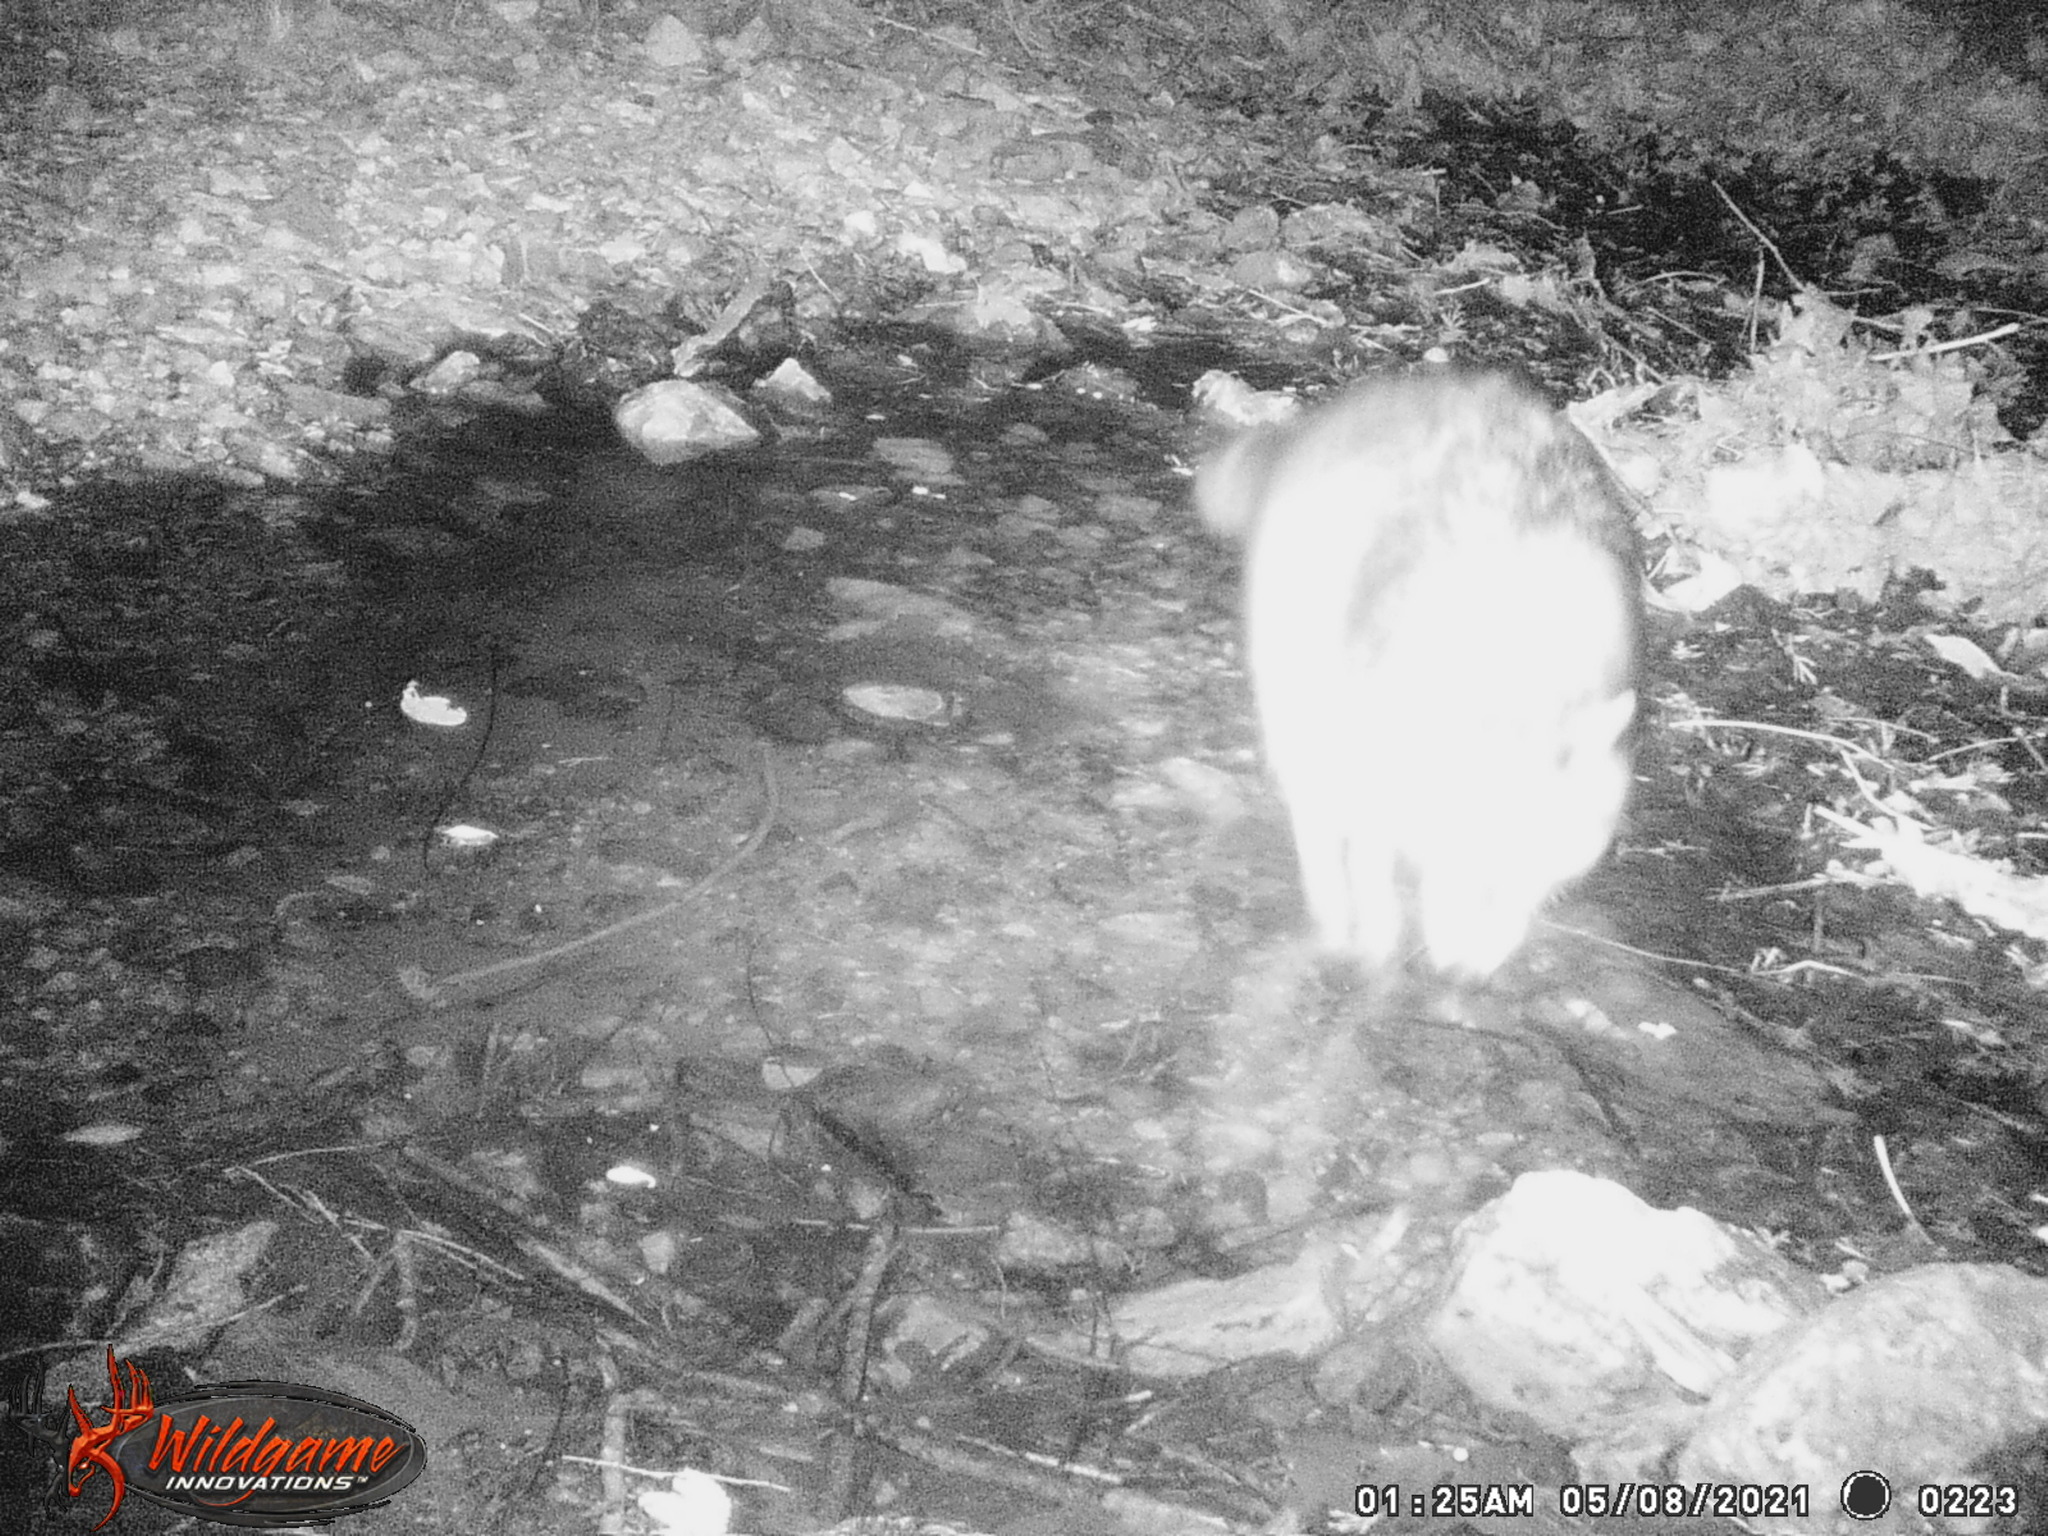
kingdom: Animalia
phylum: Chordata
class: Mammalia
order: Carnivora
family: Canidae
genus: Canis
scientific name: Canis latrans
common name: Coyote
